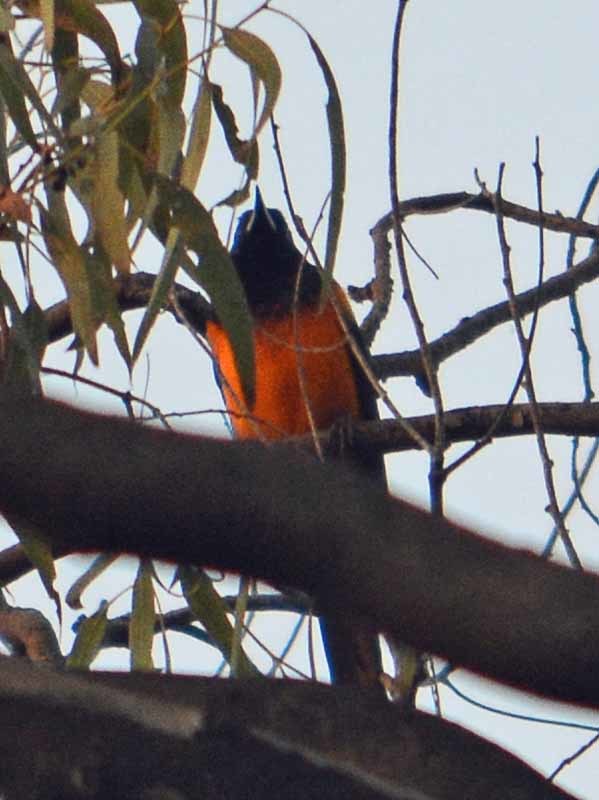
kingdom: Animalia
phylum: Chordata
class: Aves
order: Passeriformes
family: Icteridae
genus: Icterus
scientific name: Icterus wagleri
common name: Black-vented oriole
